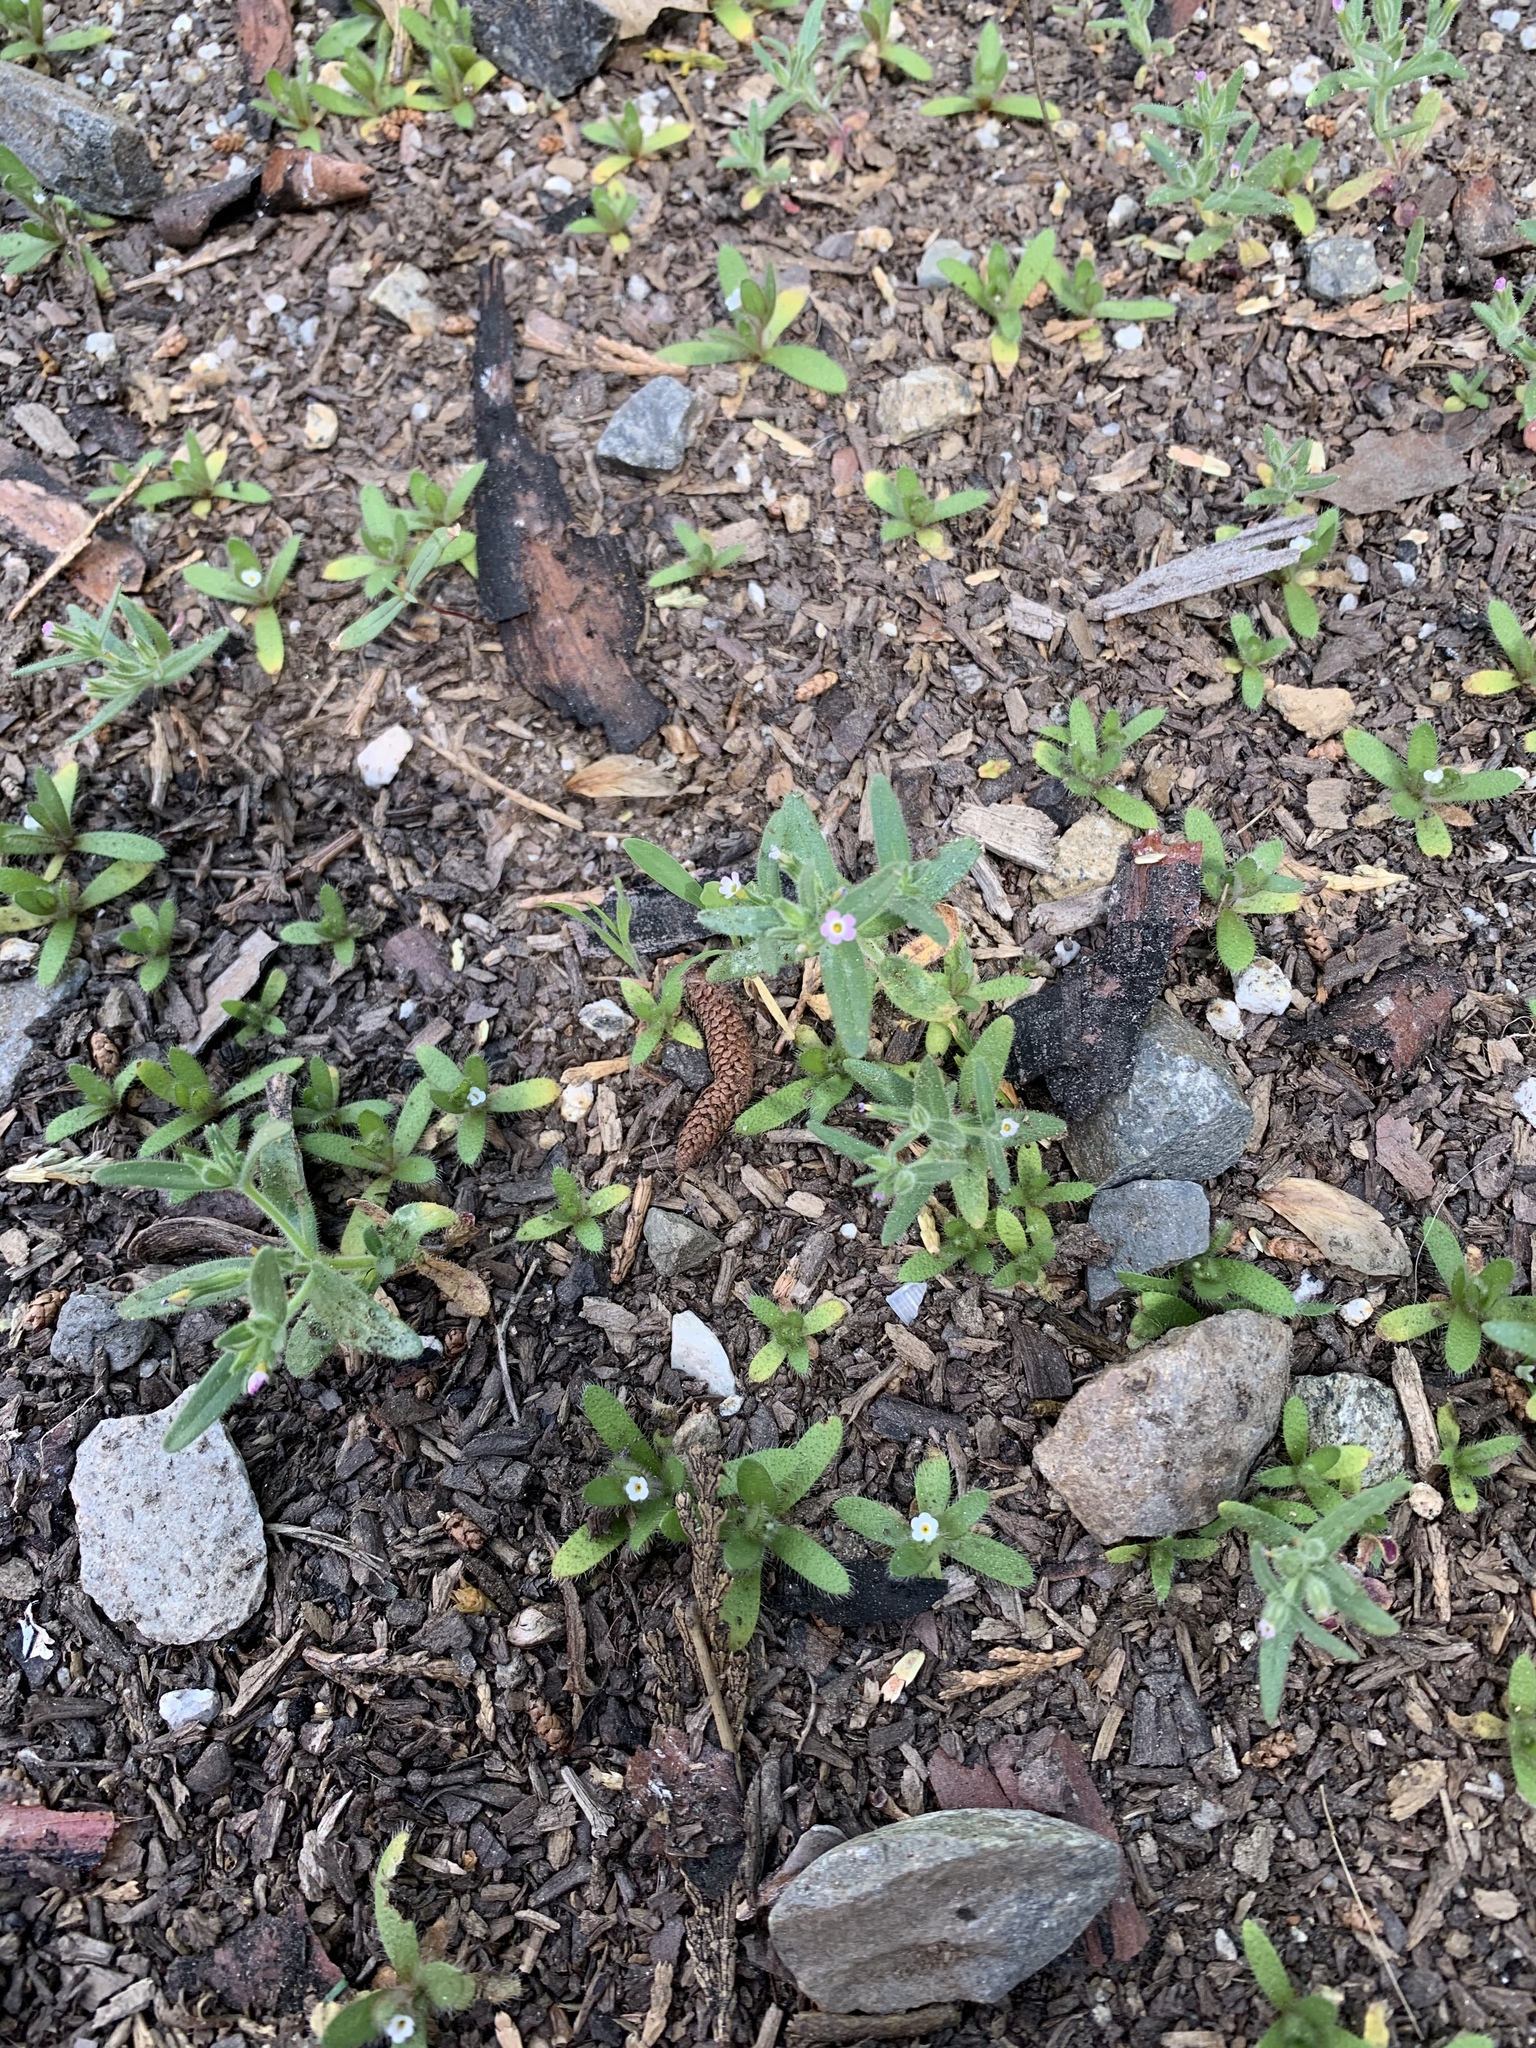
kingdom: Plantae
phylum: Tracheophyta
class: Magnoliopsida
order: Ericales
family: Polemoniaceae
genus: Phlox
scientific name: Phlox gracilis
